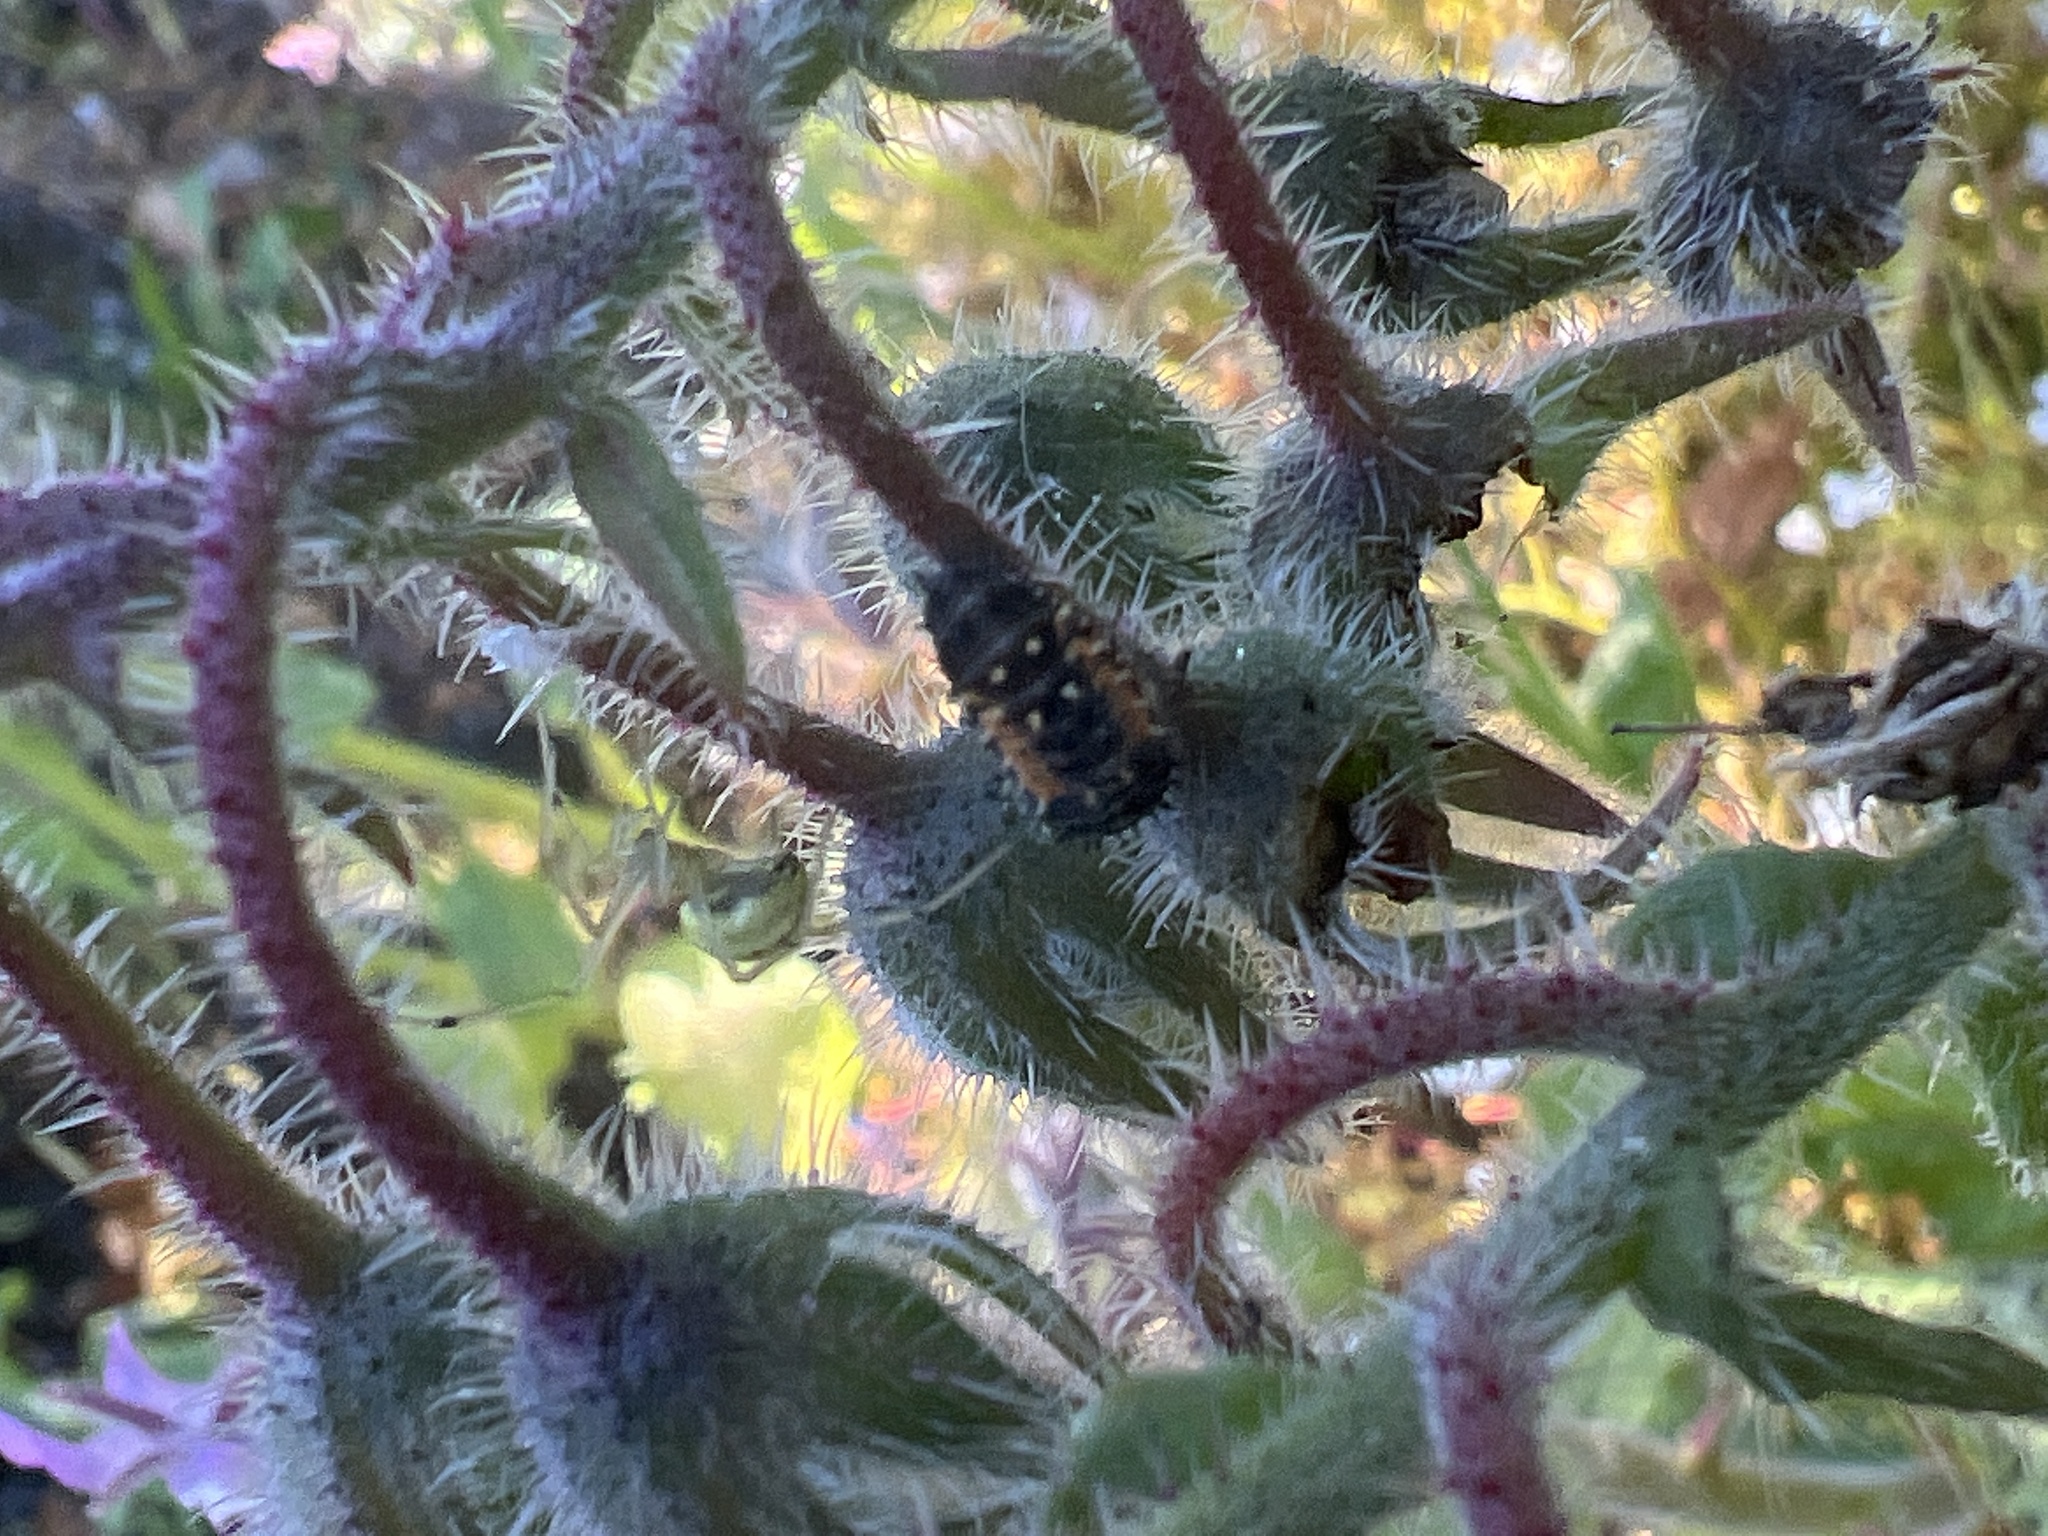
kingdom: Animalia
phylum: Arthropoda
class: Arachnida
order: Araneae
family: Theridiidae
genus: Enoplognatha
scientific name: Enoplognatha ovata
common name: Common candy-striped spider
